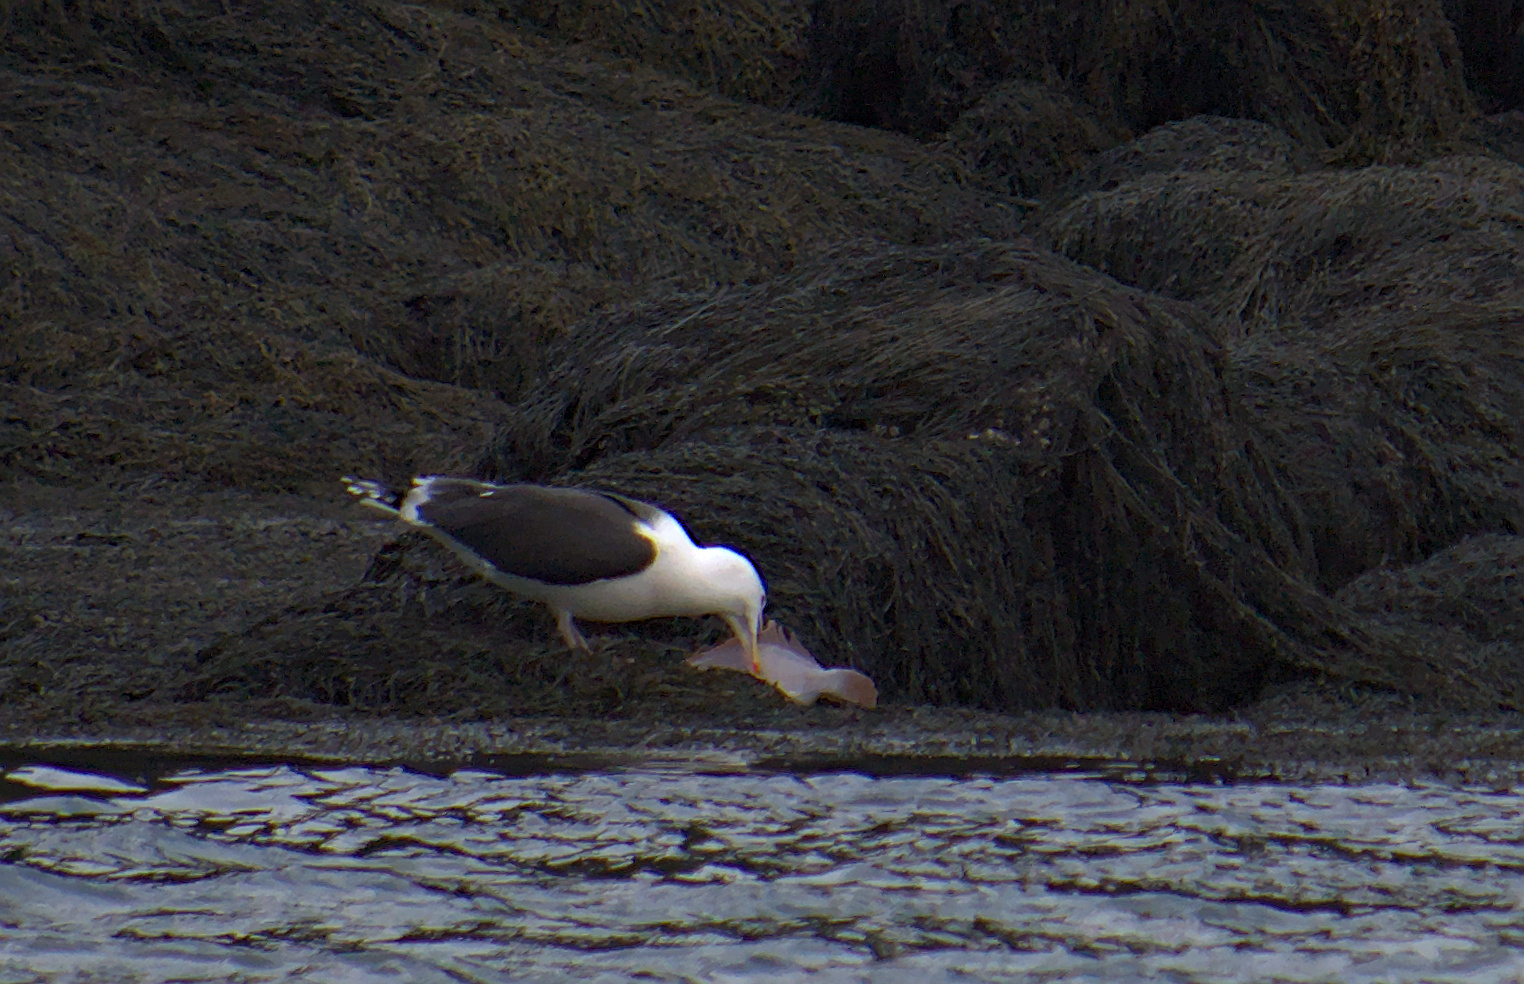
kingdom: Animalia
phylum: Chordata
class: Aves
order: Charadriiformes
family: Laridae
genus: Larus
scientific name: Larus marinus
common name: Great black-backed gull
